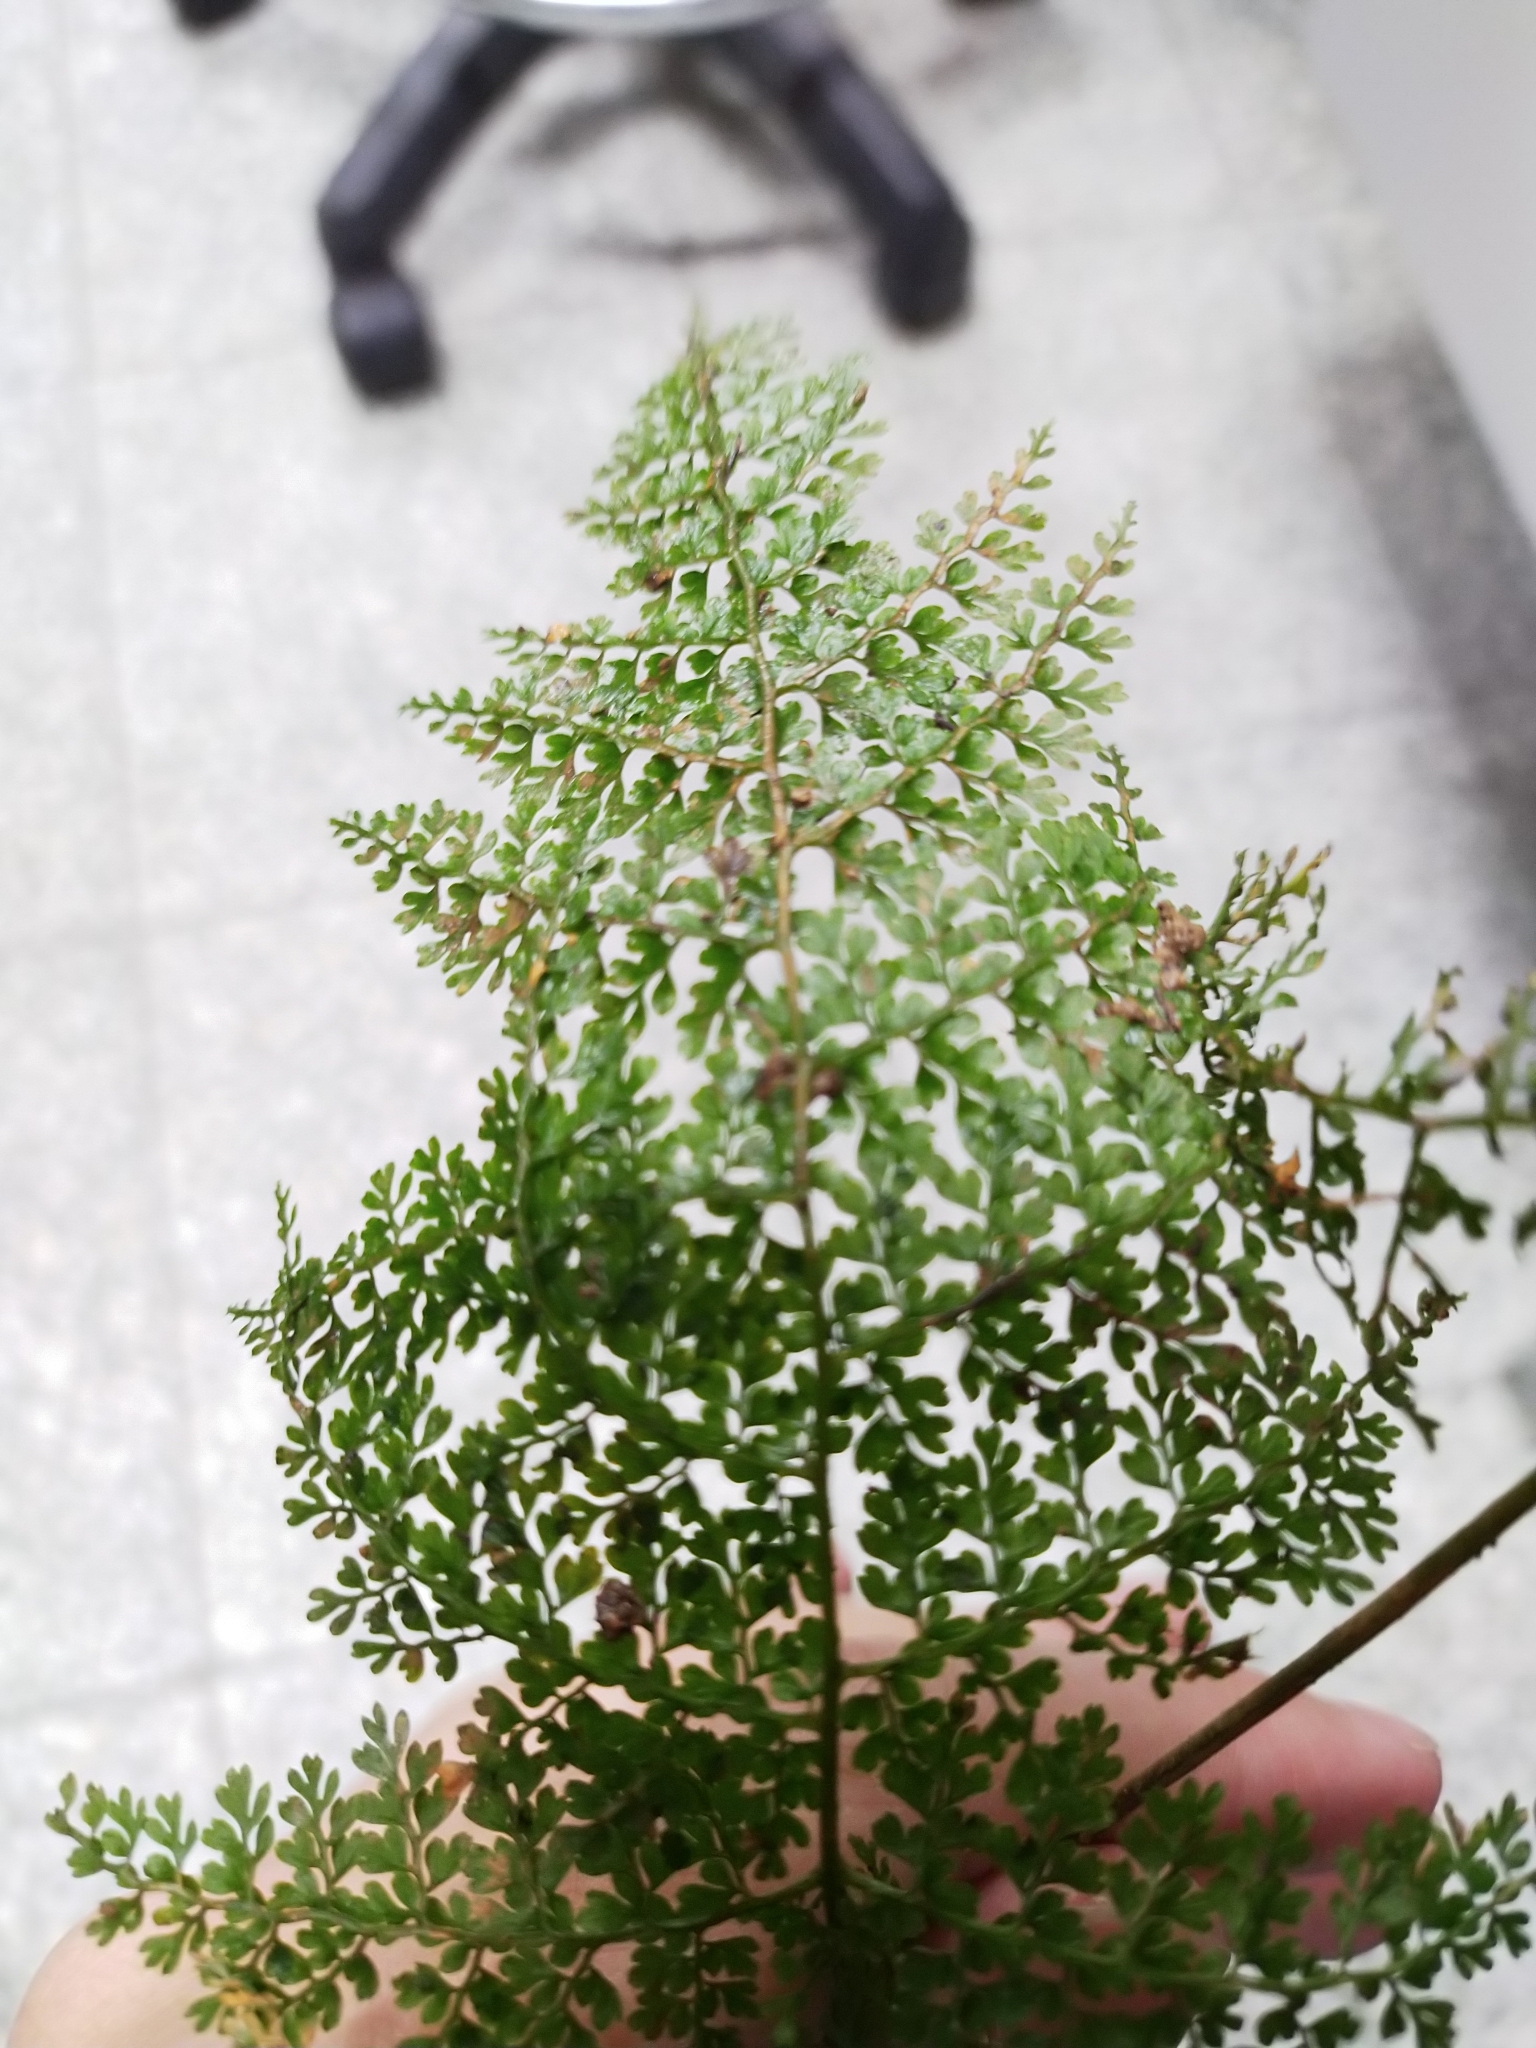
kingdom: Plantae
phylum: Tracheophyta
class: Polypodiopsida
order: Polypodiales
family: Dennstaedtiaceae
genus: Monachosorum
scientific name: Monachosorum henryi
